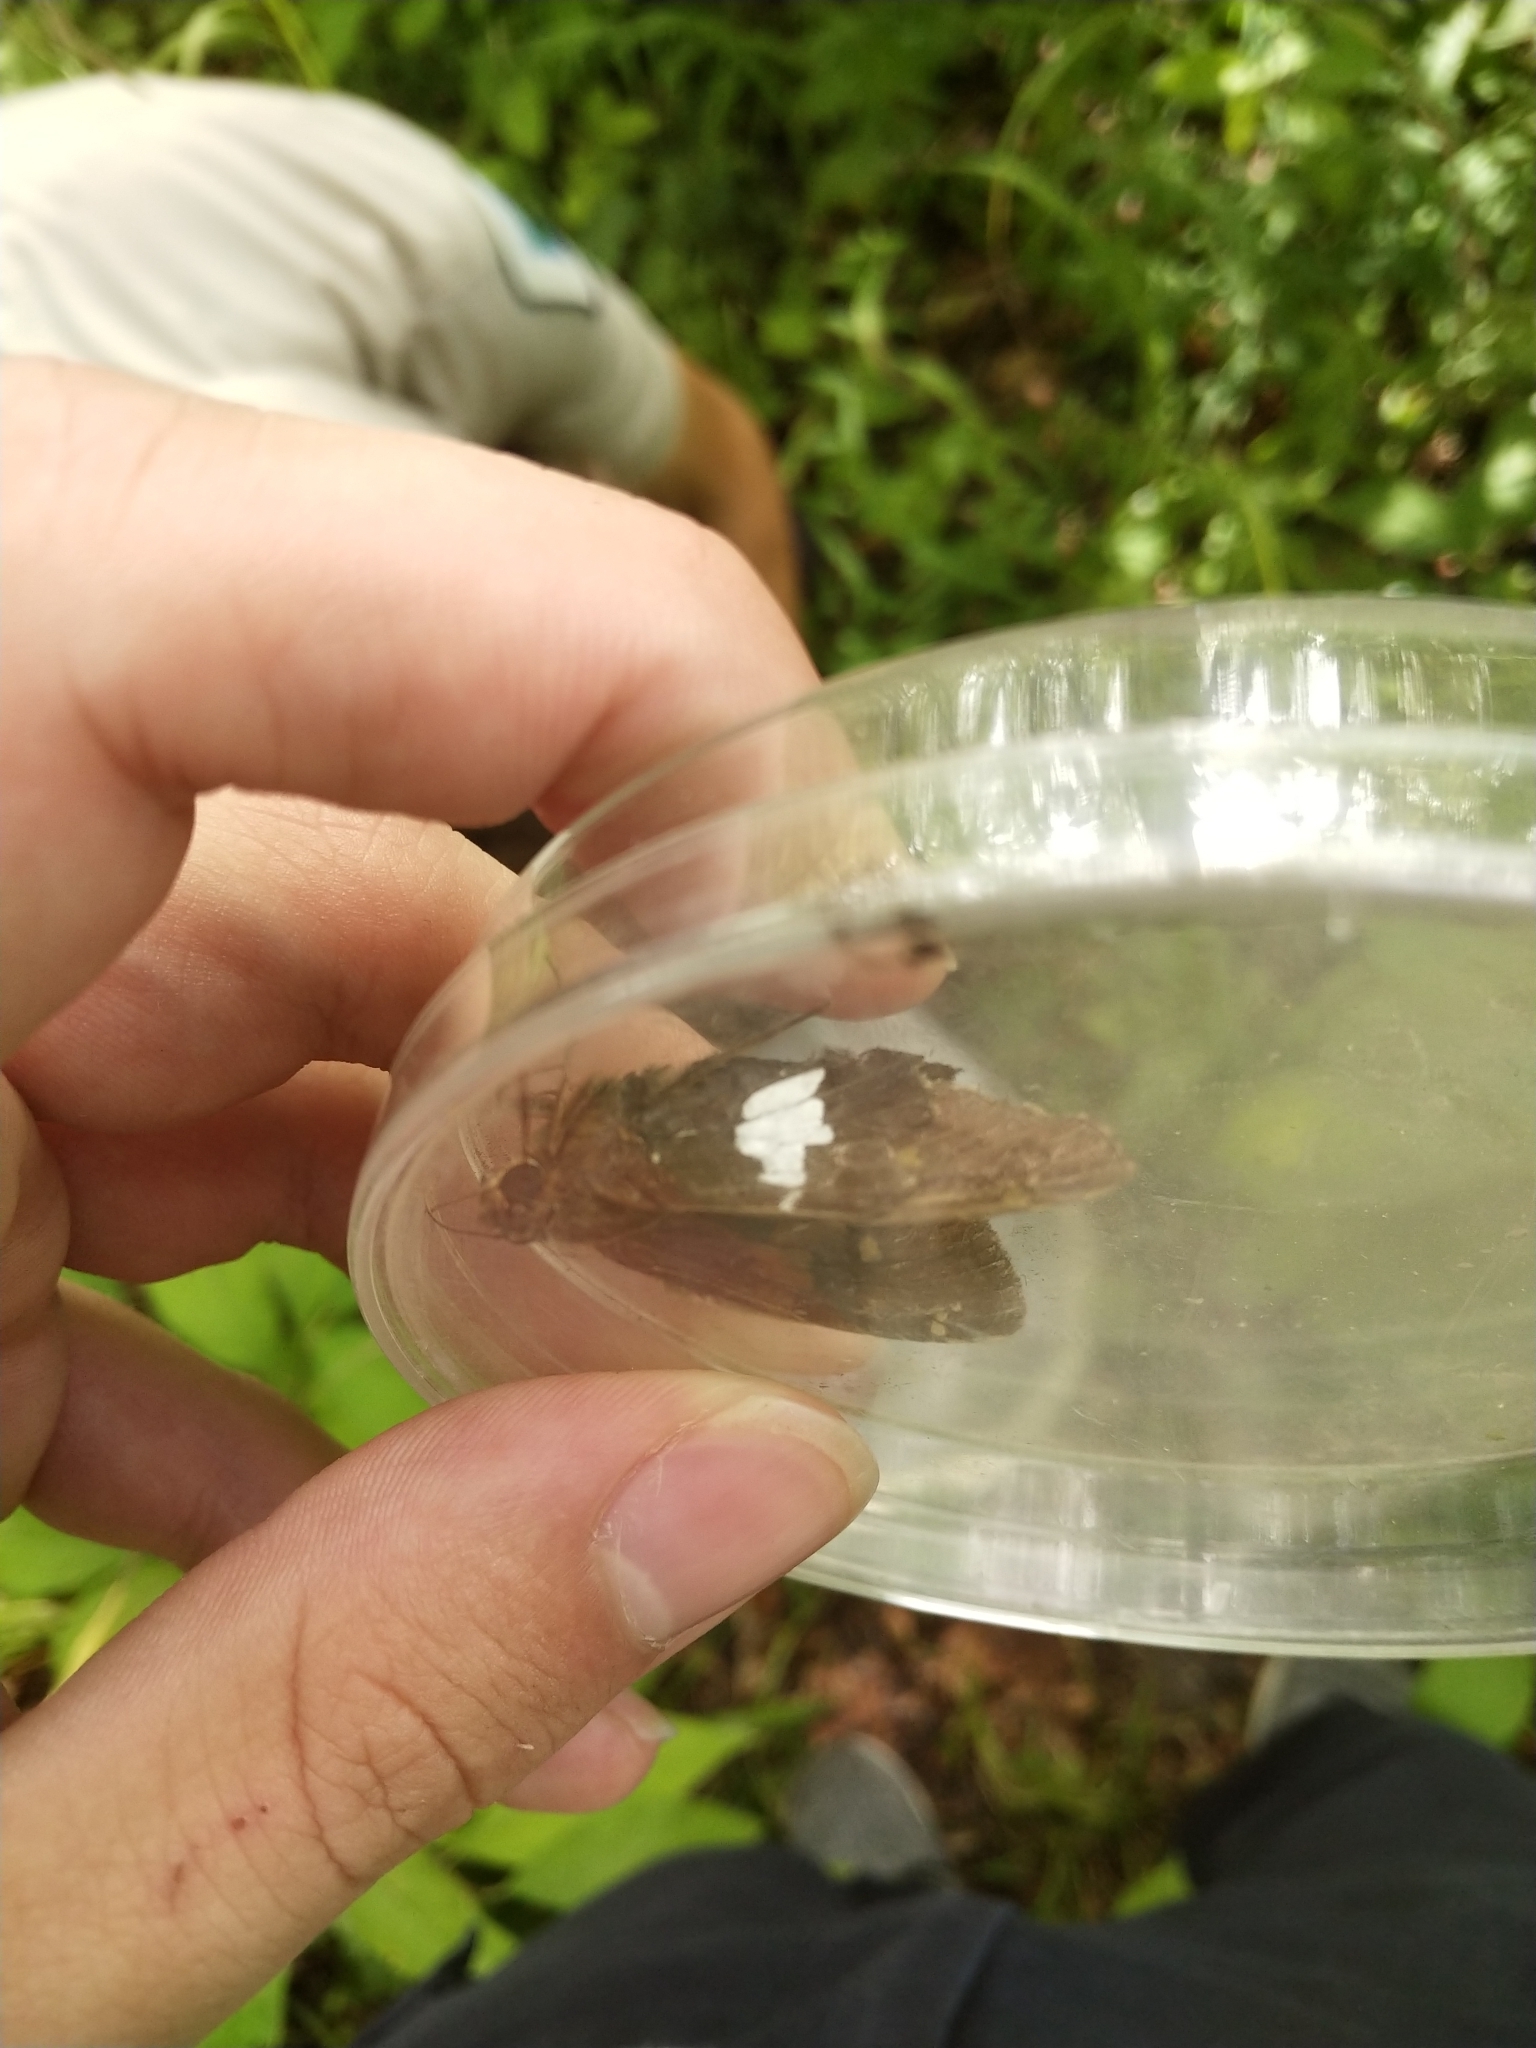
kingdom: Animalia
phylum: Arthropoda
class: Insecta
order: Lepidoptera
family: Hesperiidae
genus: Epargyreus
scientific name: Epargyreus clarus
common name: Silver-spotted skipper
